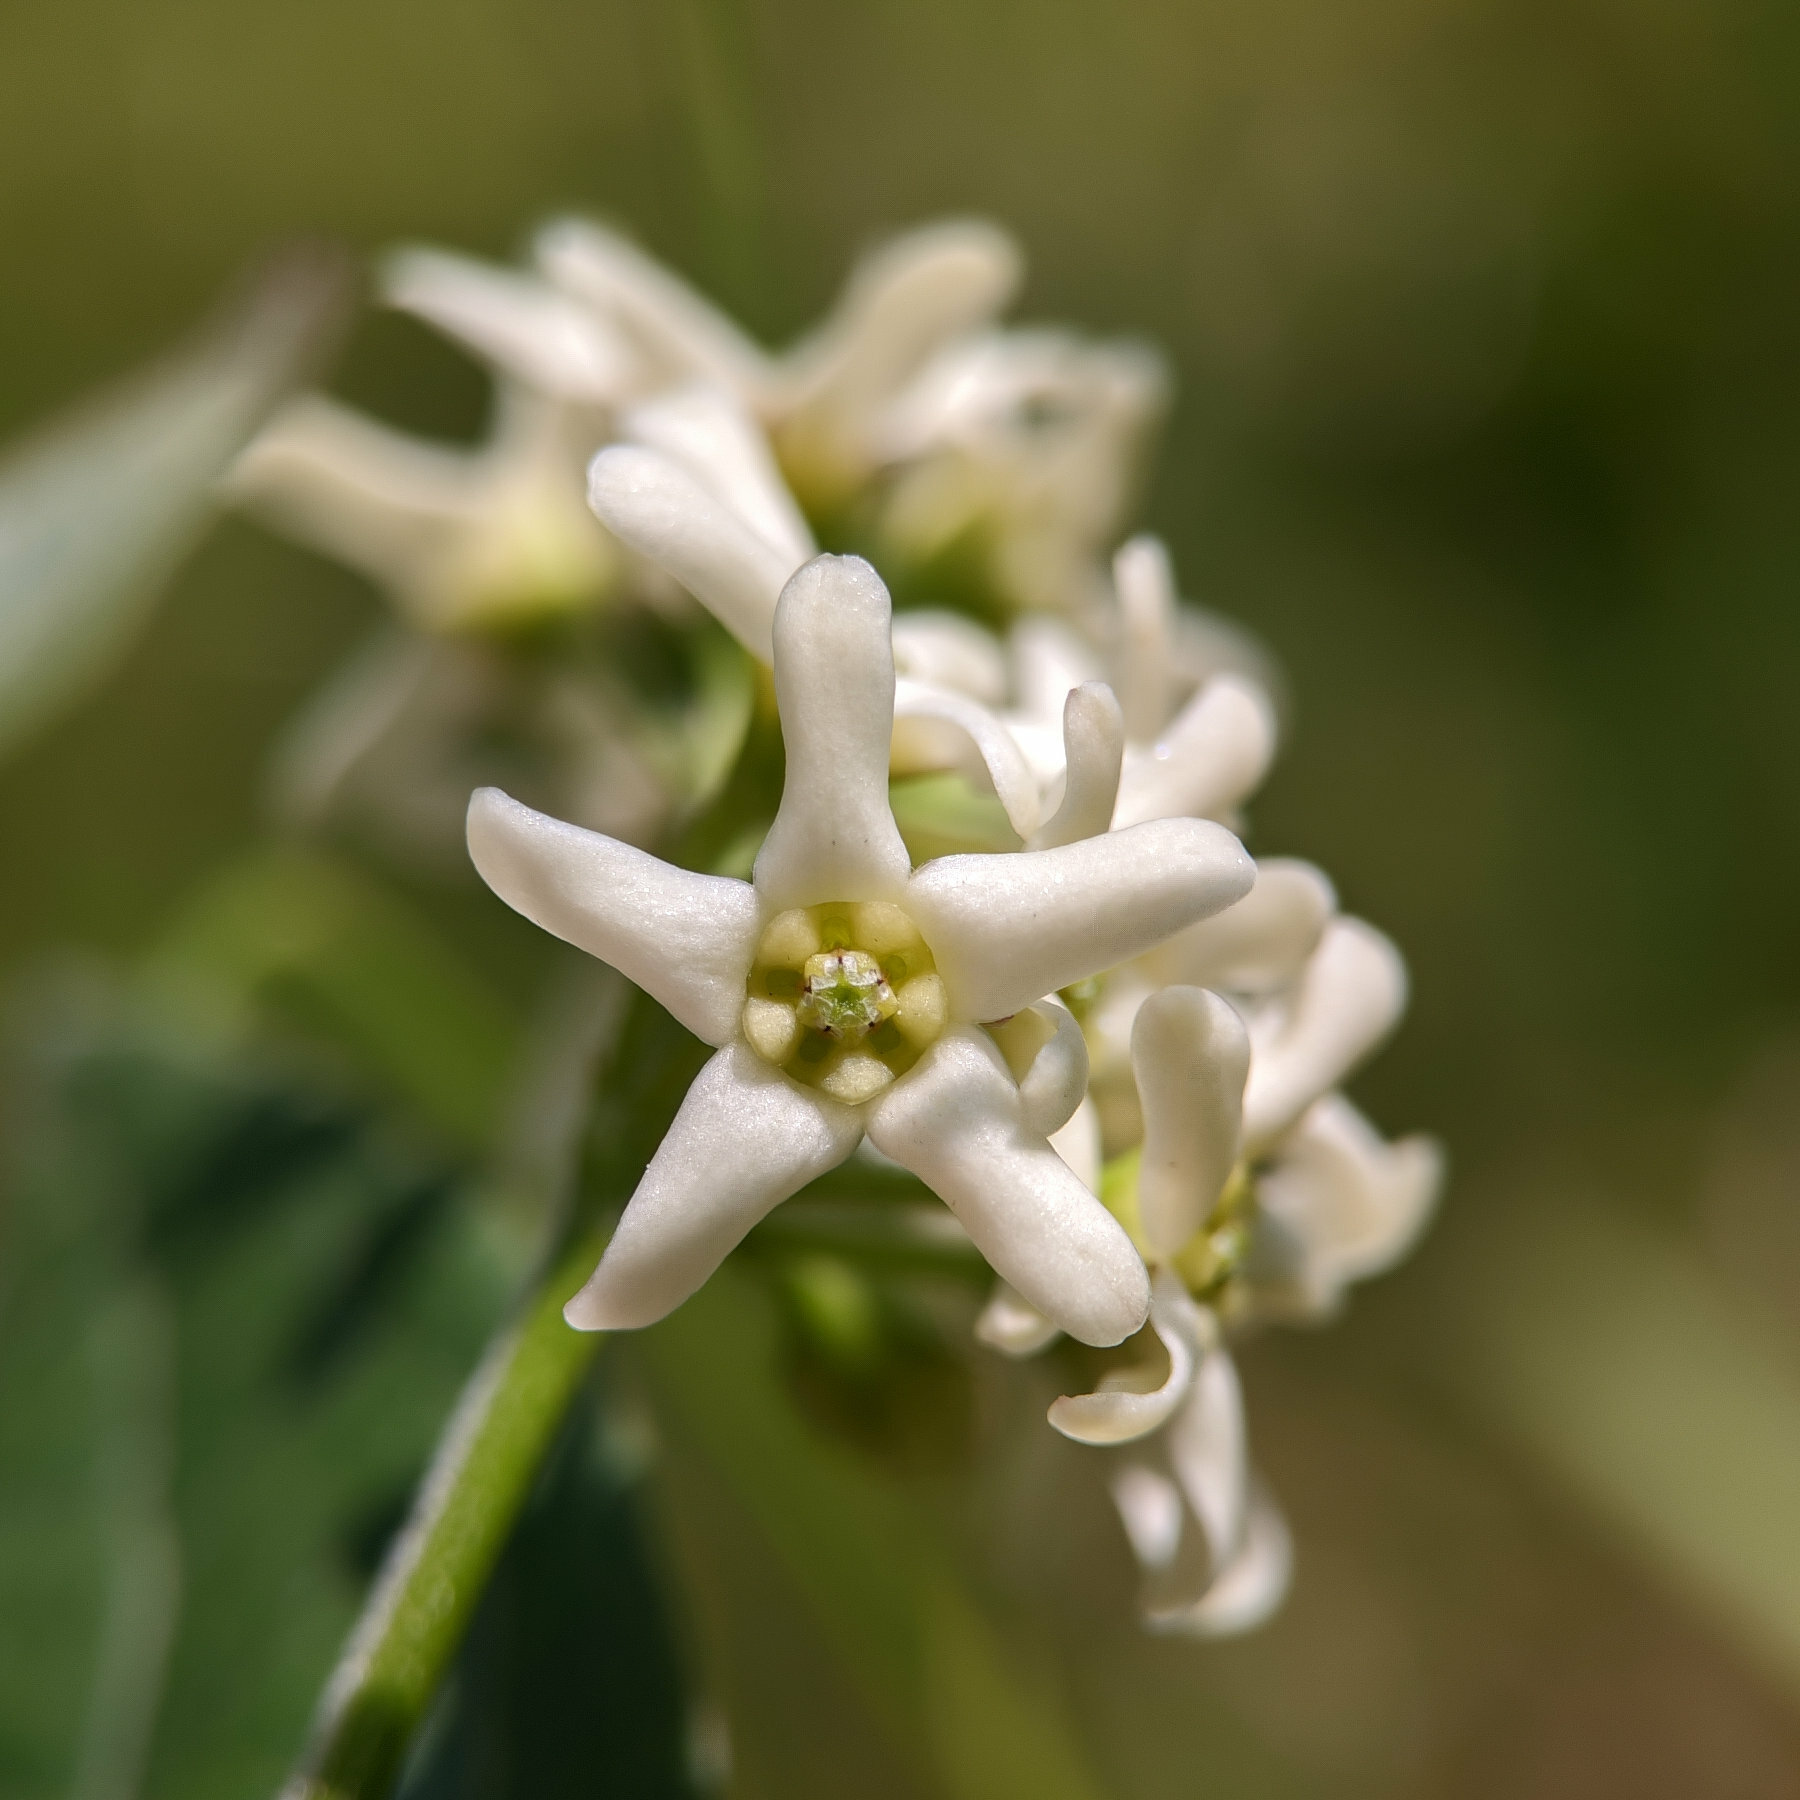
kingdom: Plantae
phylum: Tracheophyta
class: Magnoliopsida
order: Gentianales
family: Apocynaceae
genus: Vincetoxicum
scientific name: Vincetoxicum hirundinaria
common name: White swallowwort
